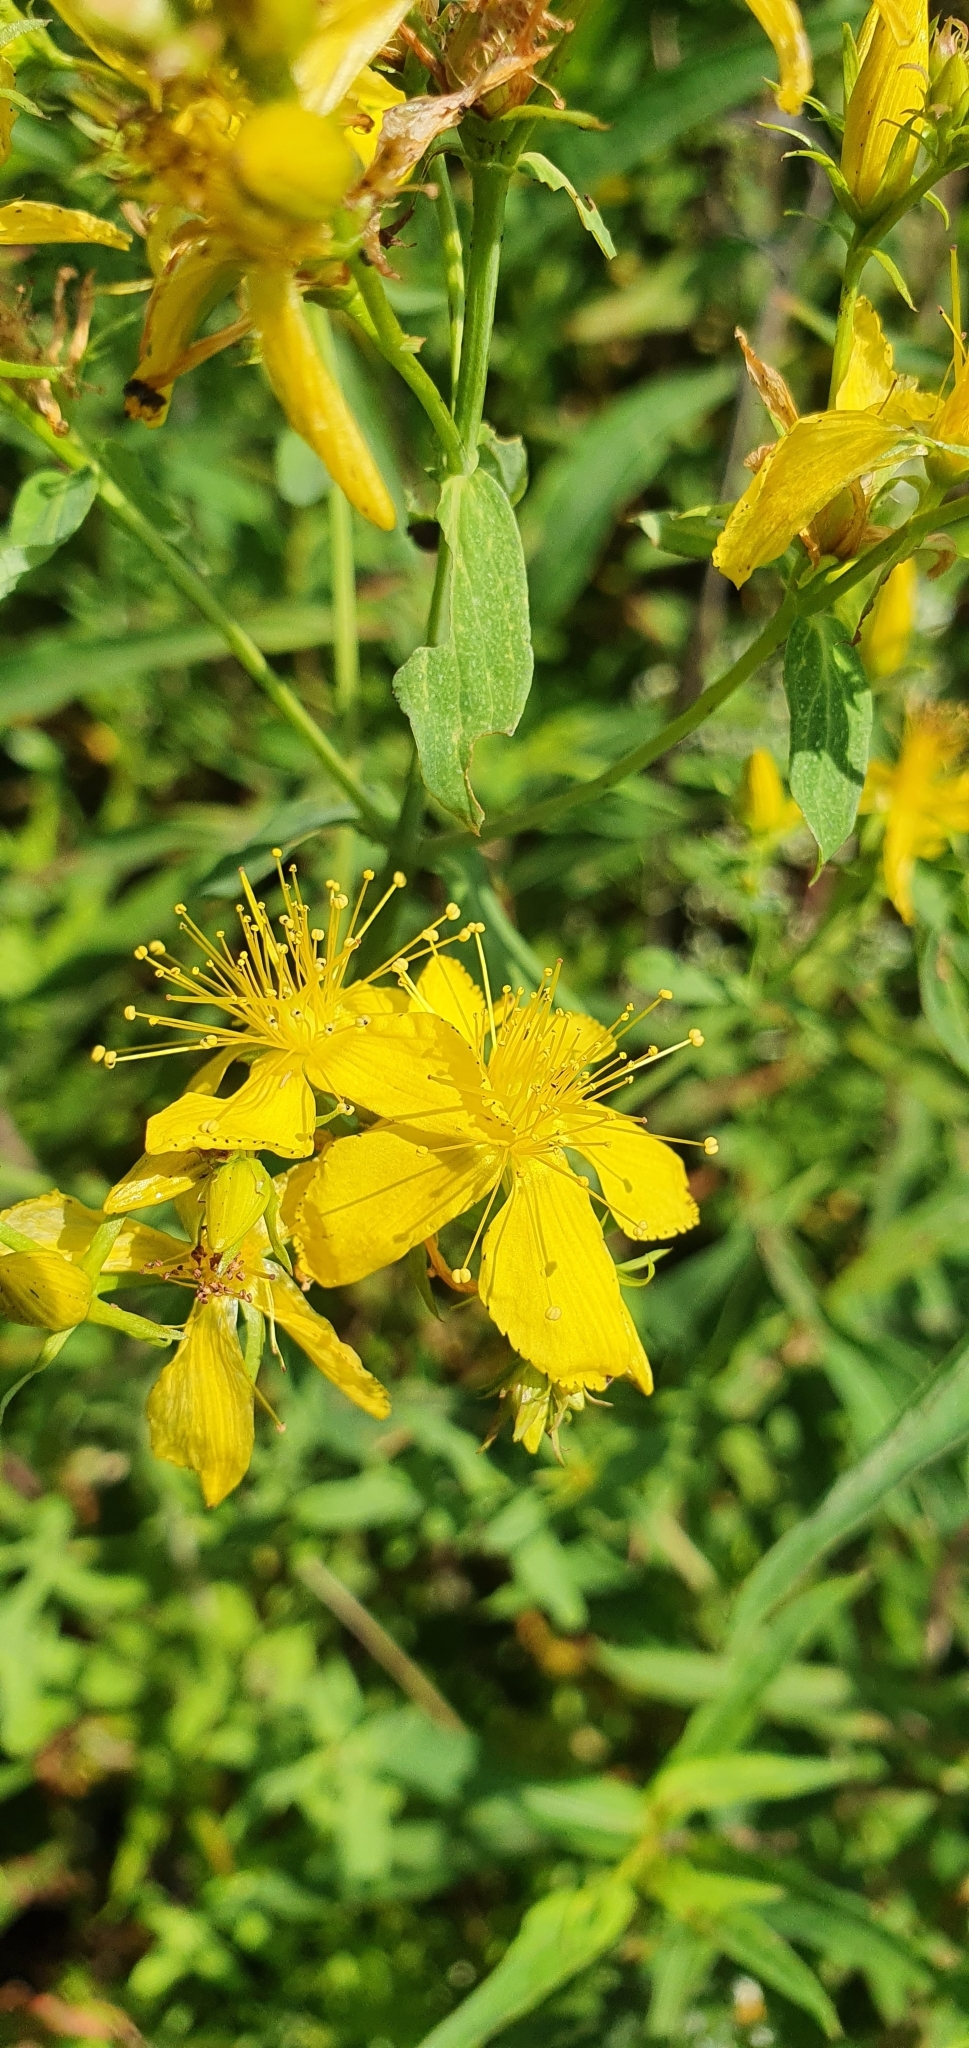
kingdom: Plantae
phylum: Tracheophyta
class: Magnoliopsida
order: Malpighiales
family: Hypericaceae
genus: Hypericum
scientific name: Hypericum perforatum
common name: Common st. johnswort
